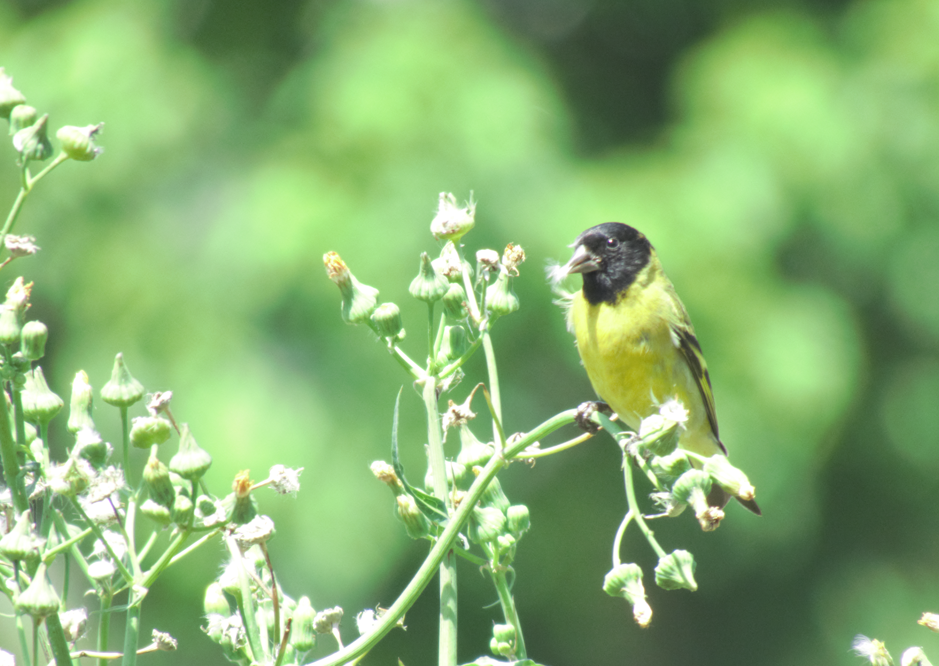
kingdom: Animalia
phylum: Chordata
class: Aves
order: Passeriformes
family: Fringillidae
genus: Spinus
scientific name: Spinus magellanicus
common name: Hooded siskin
